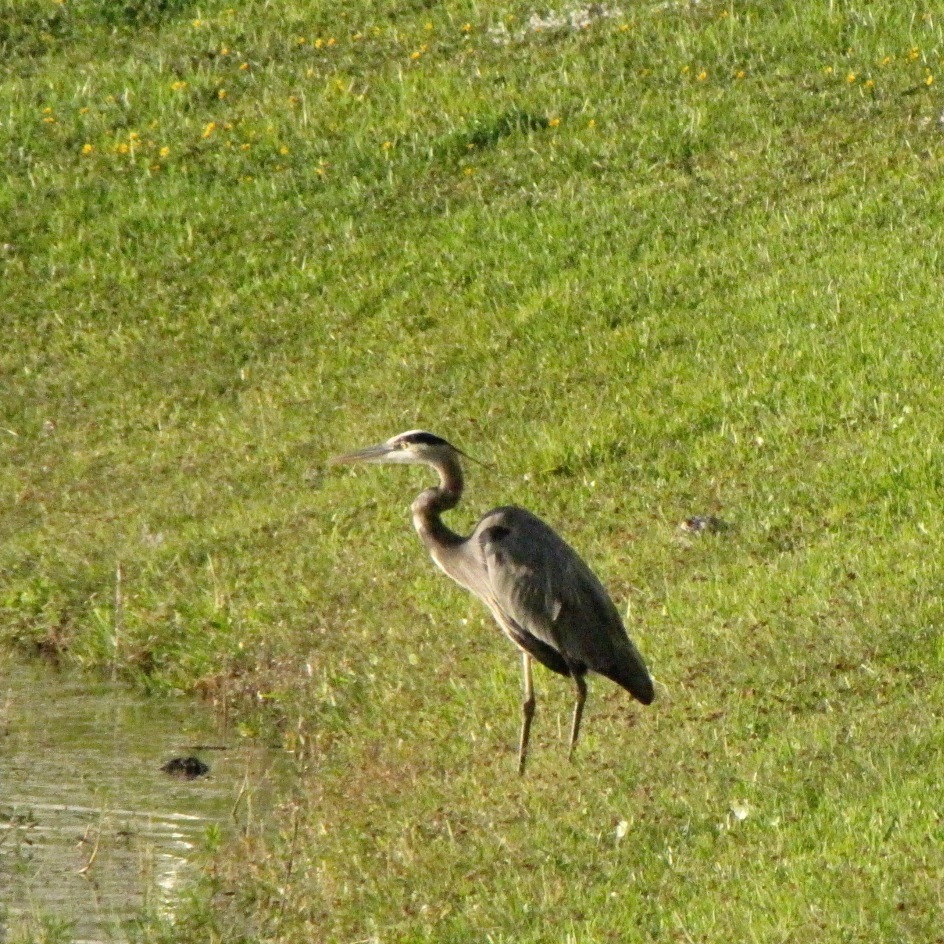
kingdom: Animalia
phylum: Chordata
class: Aves
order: Pelecaniformes
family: Ardeidae
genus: Ardea
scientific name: Ardea herodias
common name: Great blue heron
